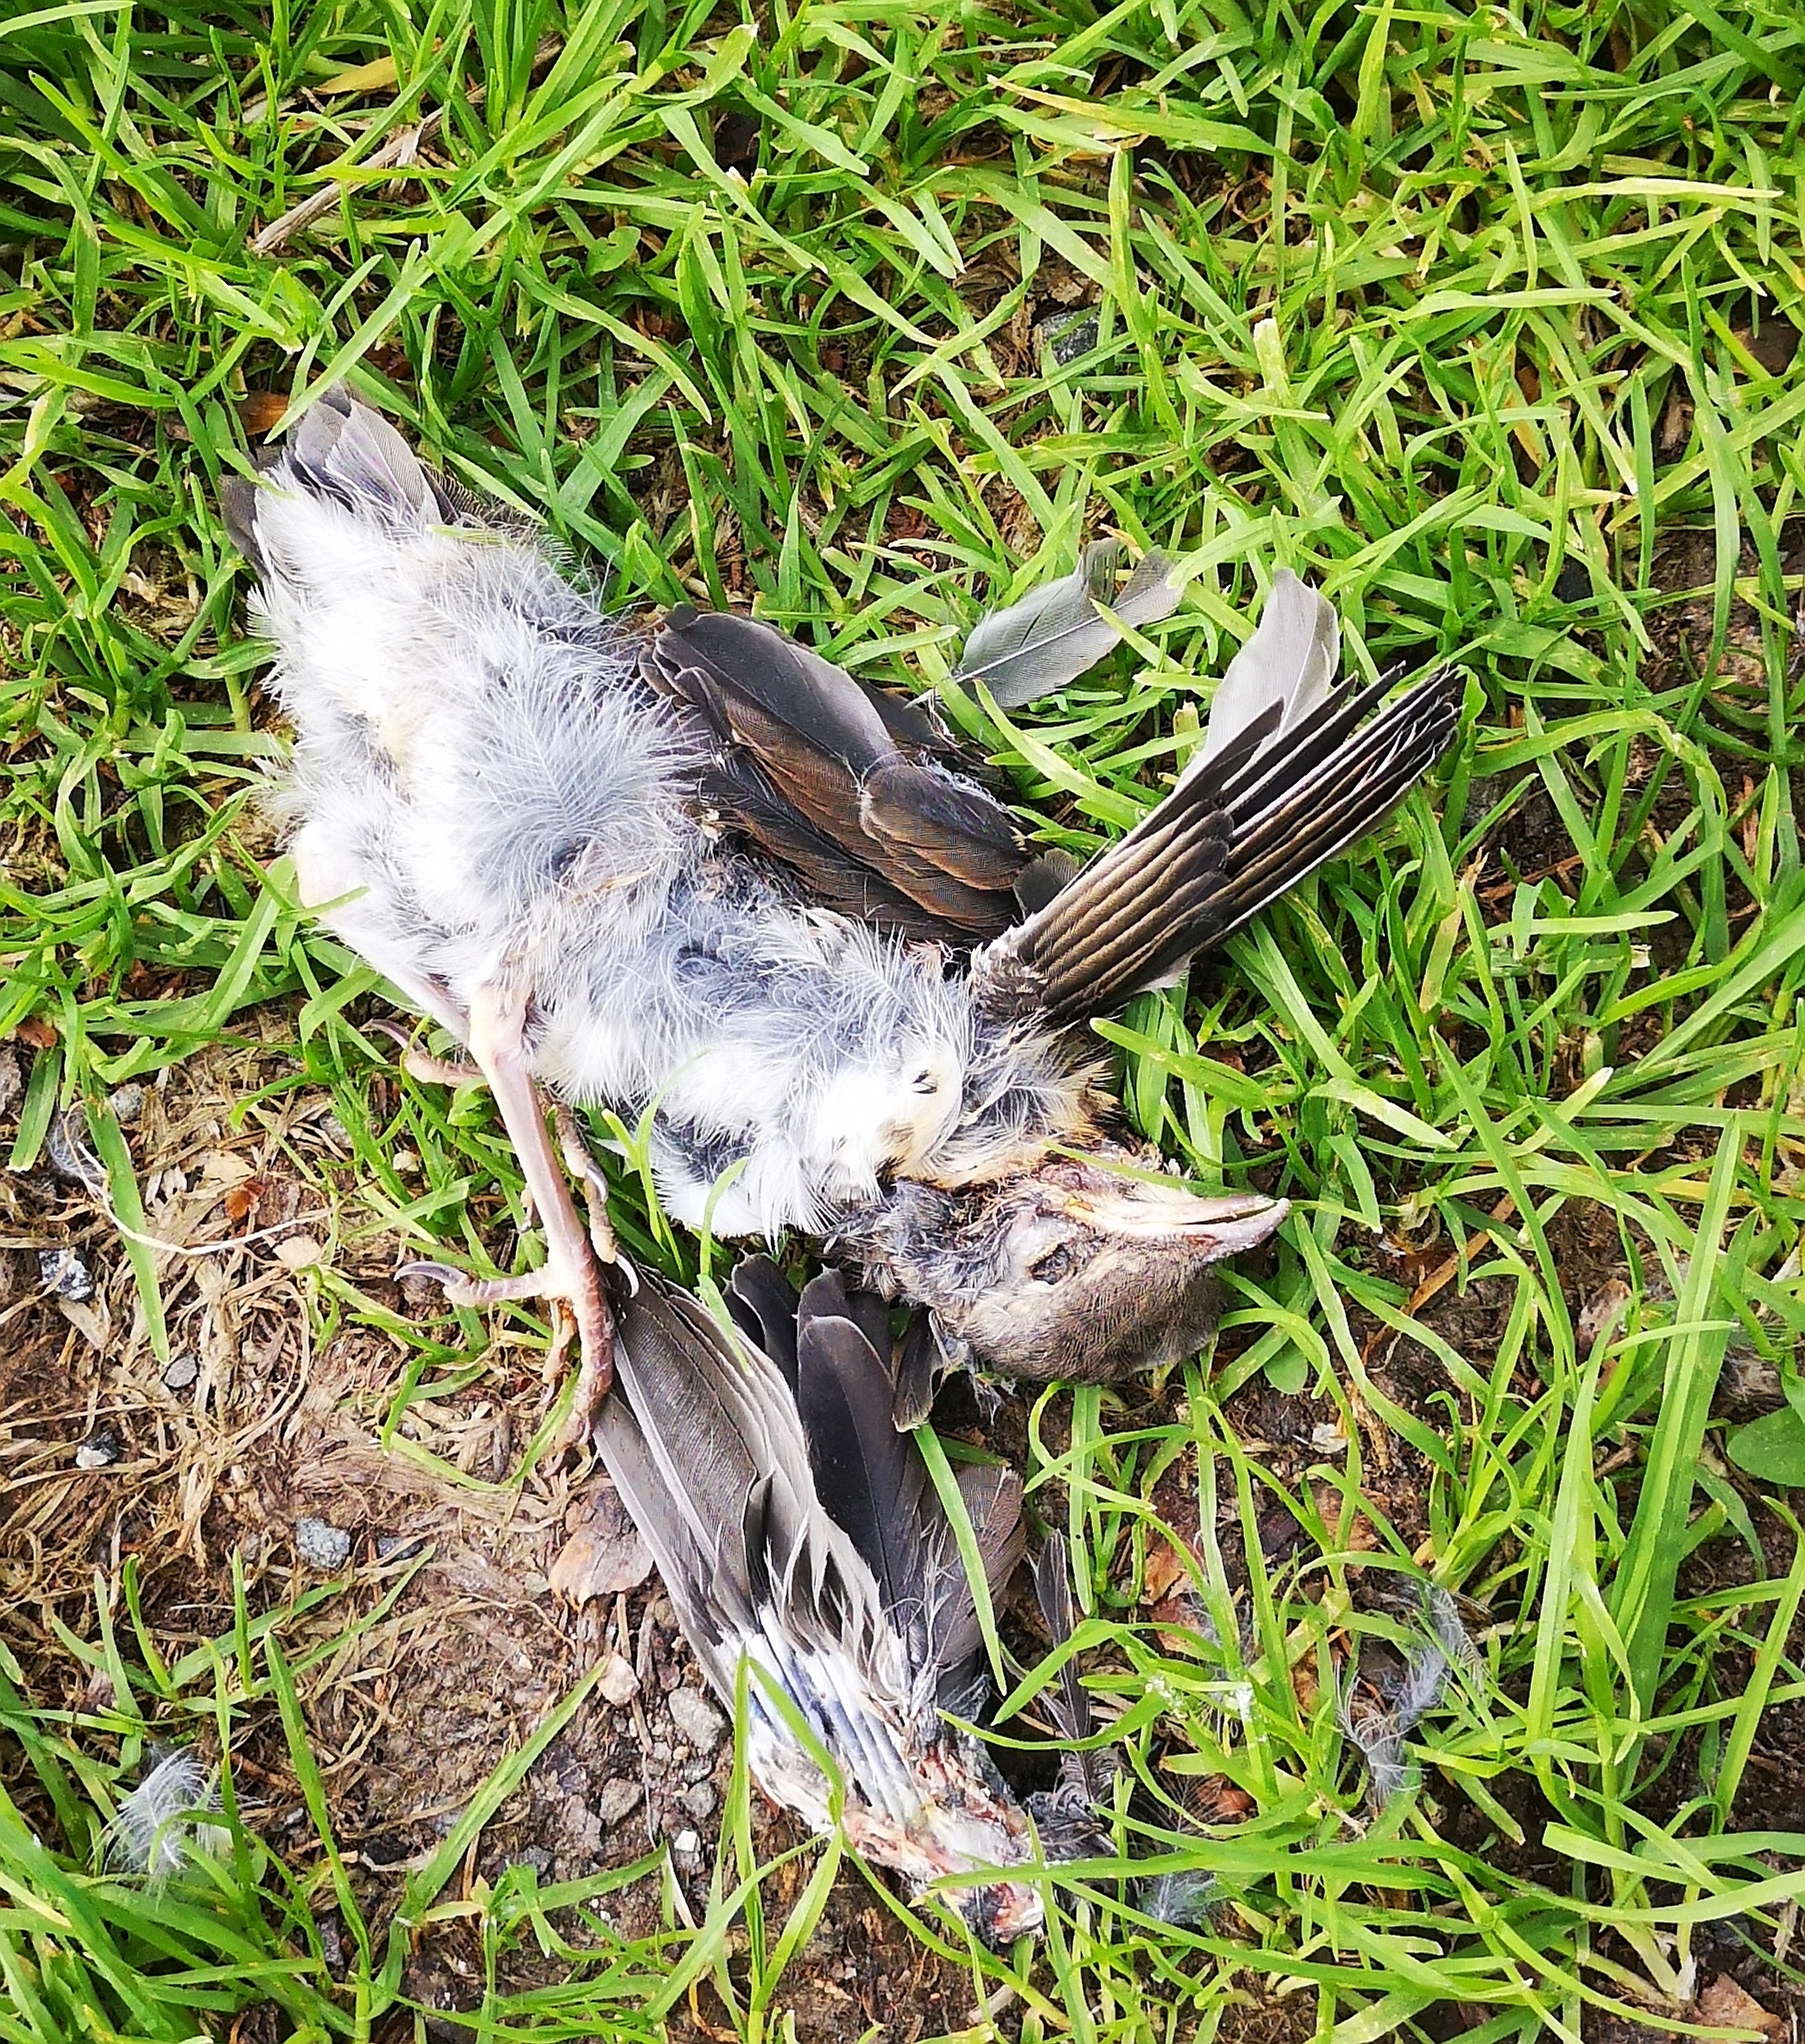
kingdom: Animalia
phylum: Chordata
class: Aves
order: Passeriformes
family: Turdidae
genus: Turdus
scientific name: Turdus pilaris
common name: Fieldfare
